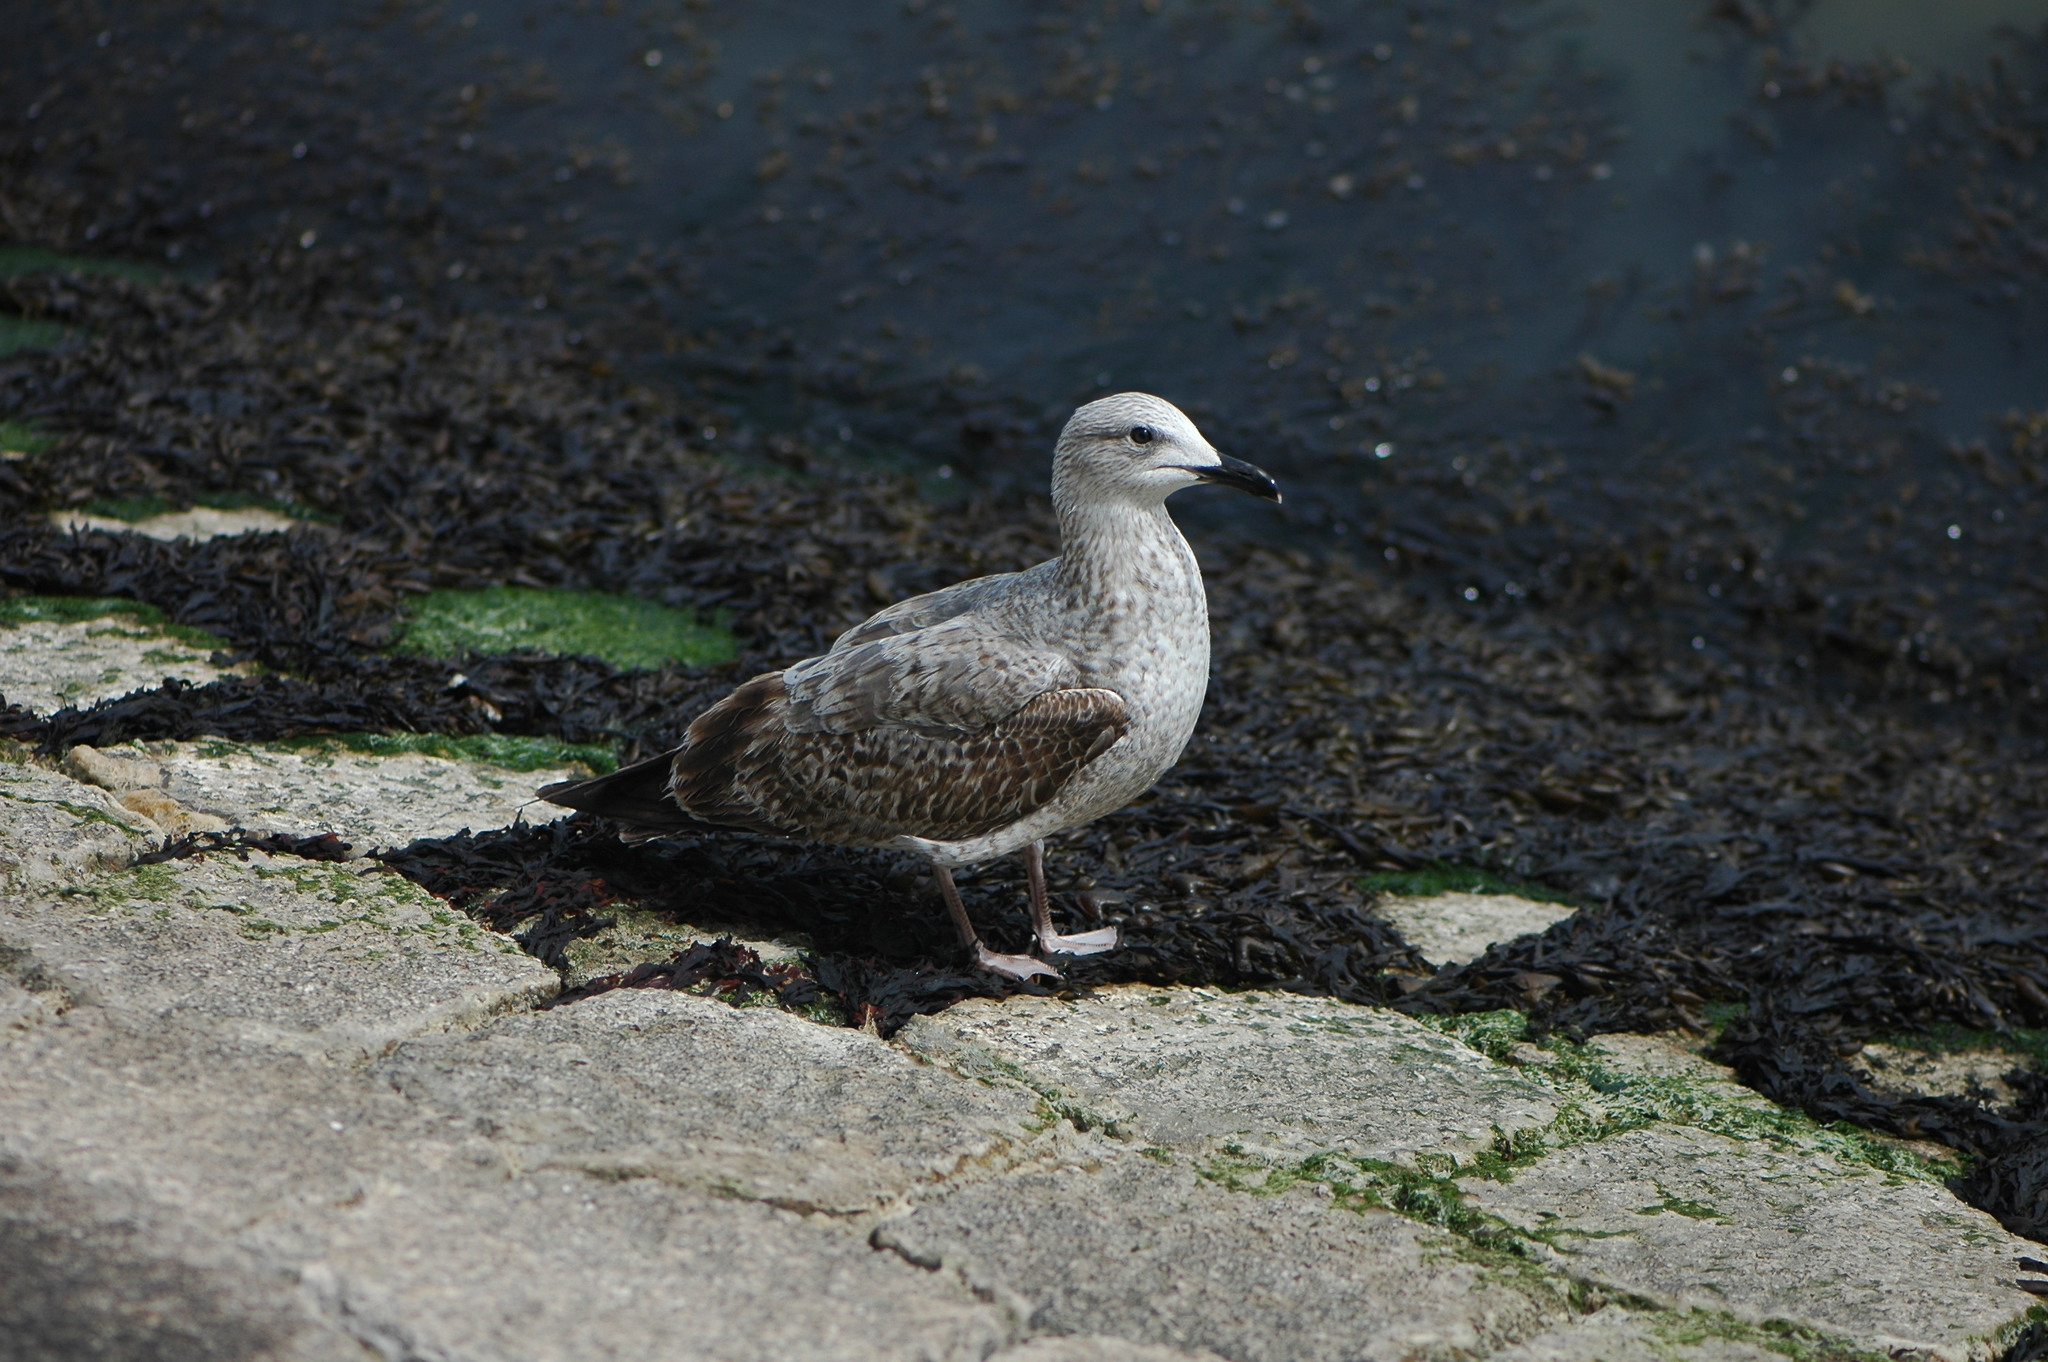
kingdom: Animalia
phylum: Chordata
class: Aves
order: Charadriiformes
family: Laridae
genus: Larus
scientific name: Larus michahellis
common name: Yellow-legged gull
